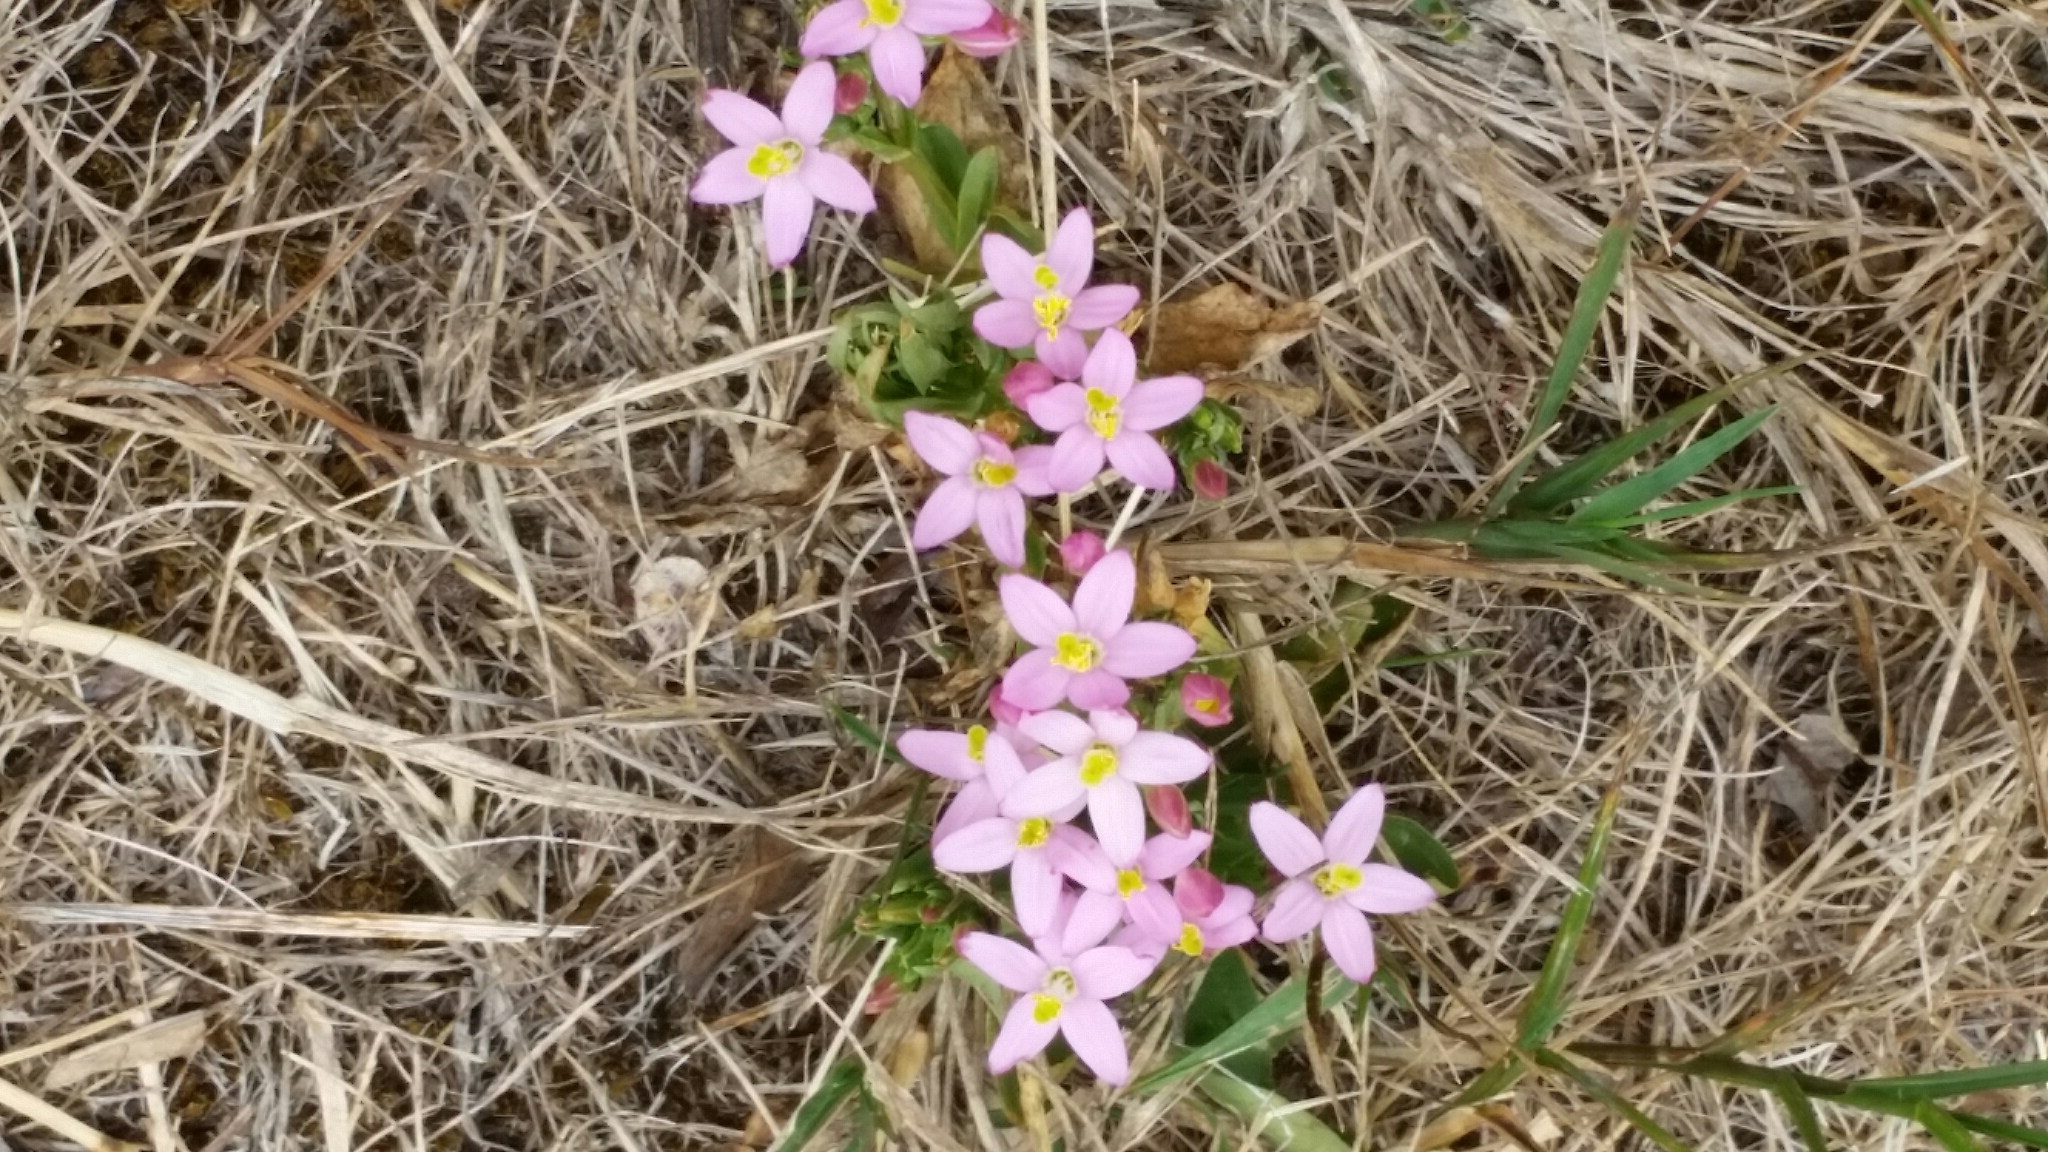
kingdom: Plantae
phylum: Tracheophyta
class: Magnoliopsida
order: Gentianales
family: Gentianaceae
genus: Centaurium
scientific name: Centaurium erythraea
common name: Common centaury
